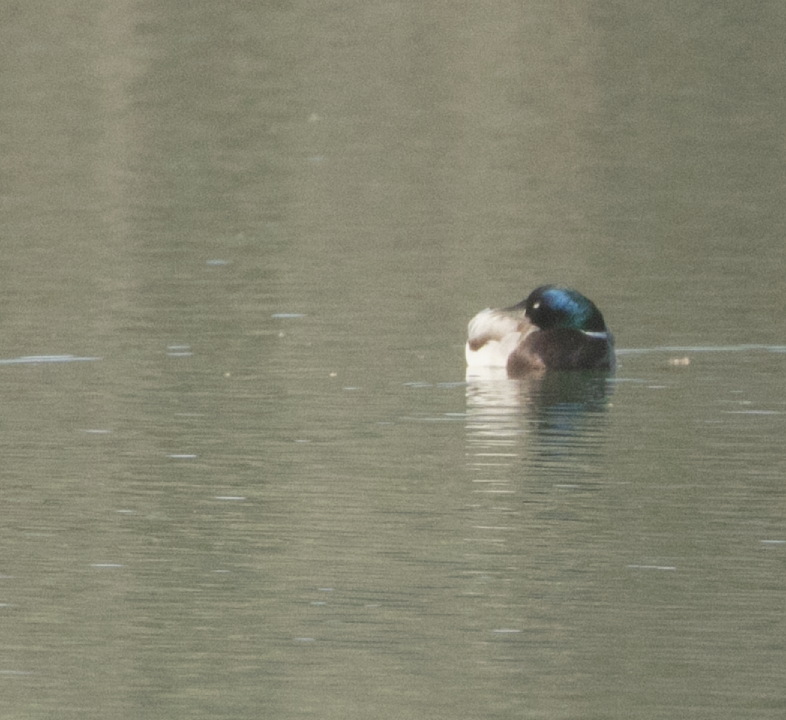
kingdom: Animalia
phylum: Chordata
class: Aves
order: Anseriformes
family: Anatidae
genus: Anas
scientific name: Anas platyrhynchos
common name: Mallard
